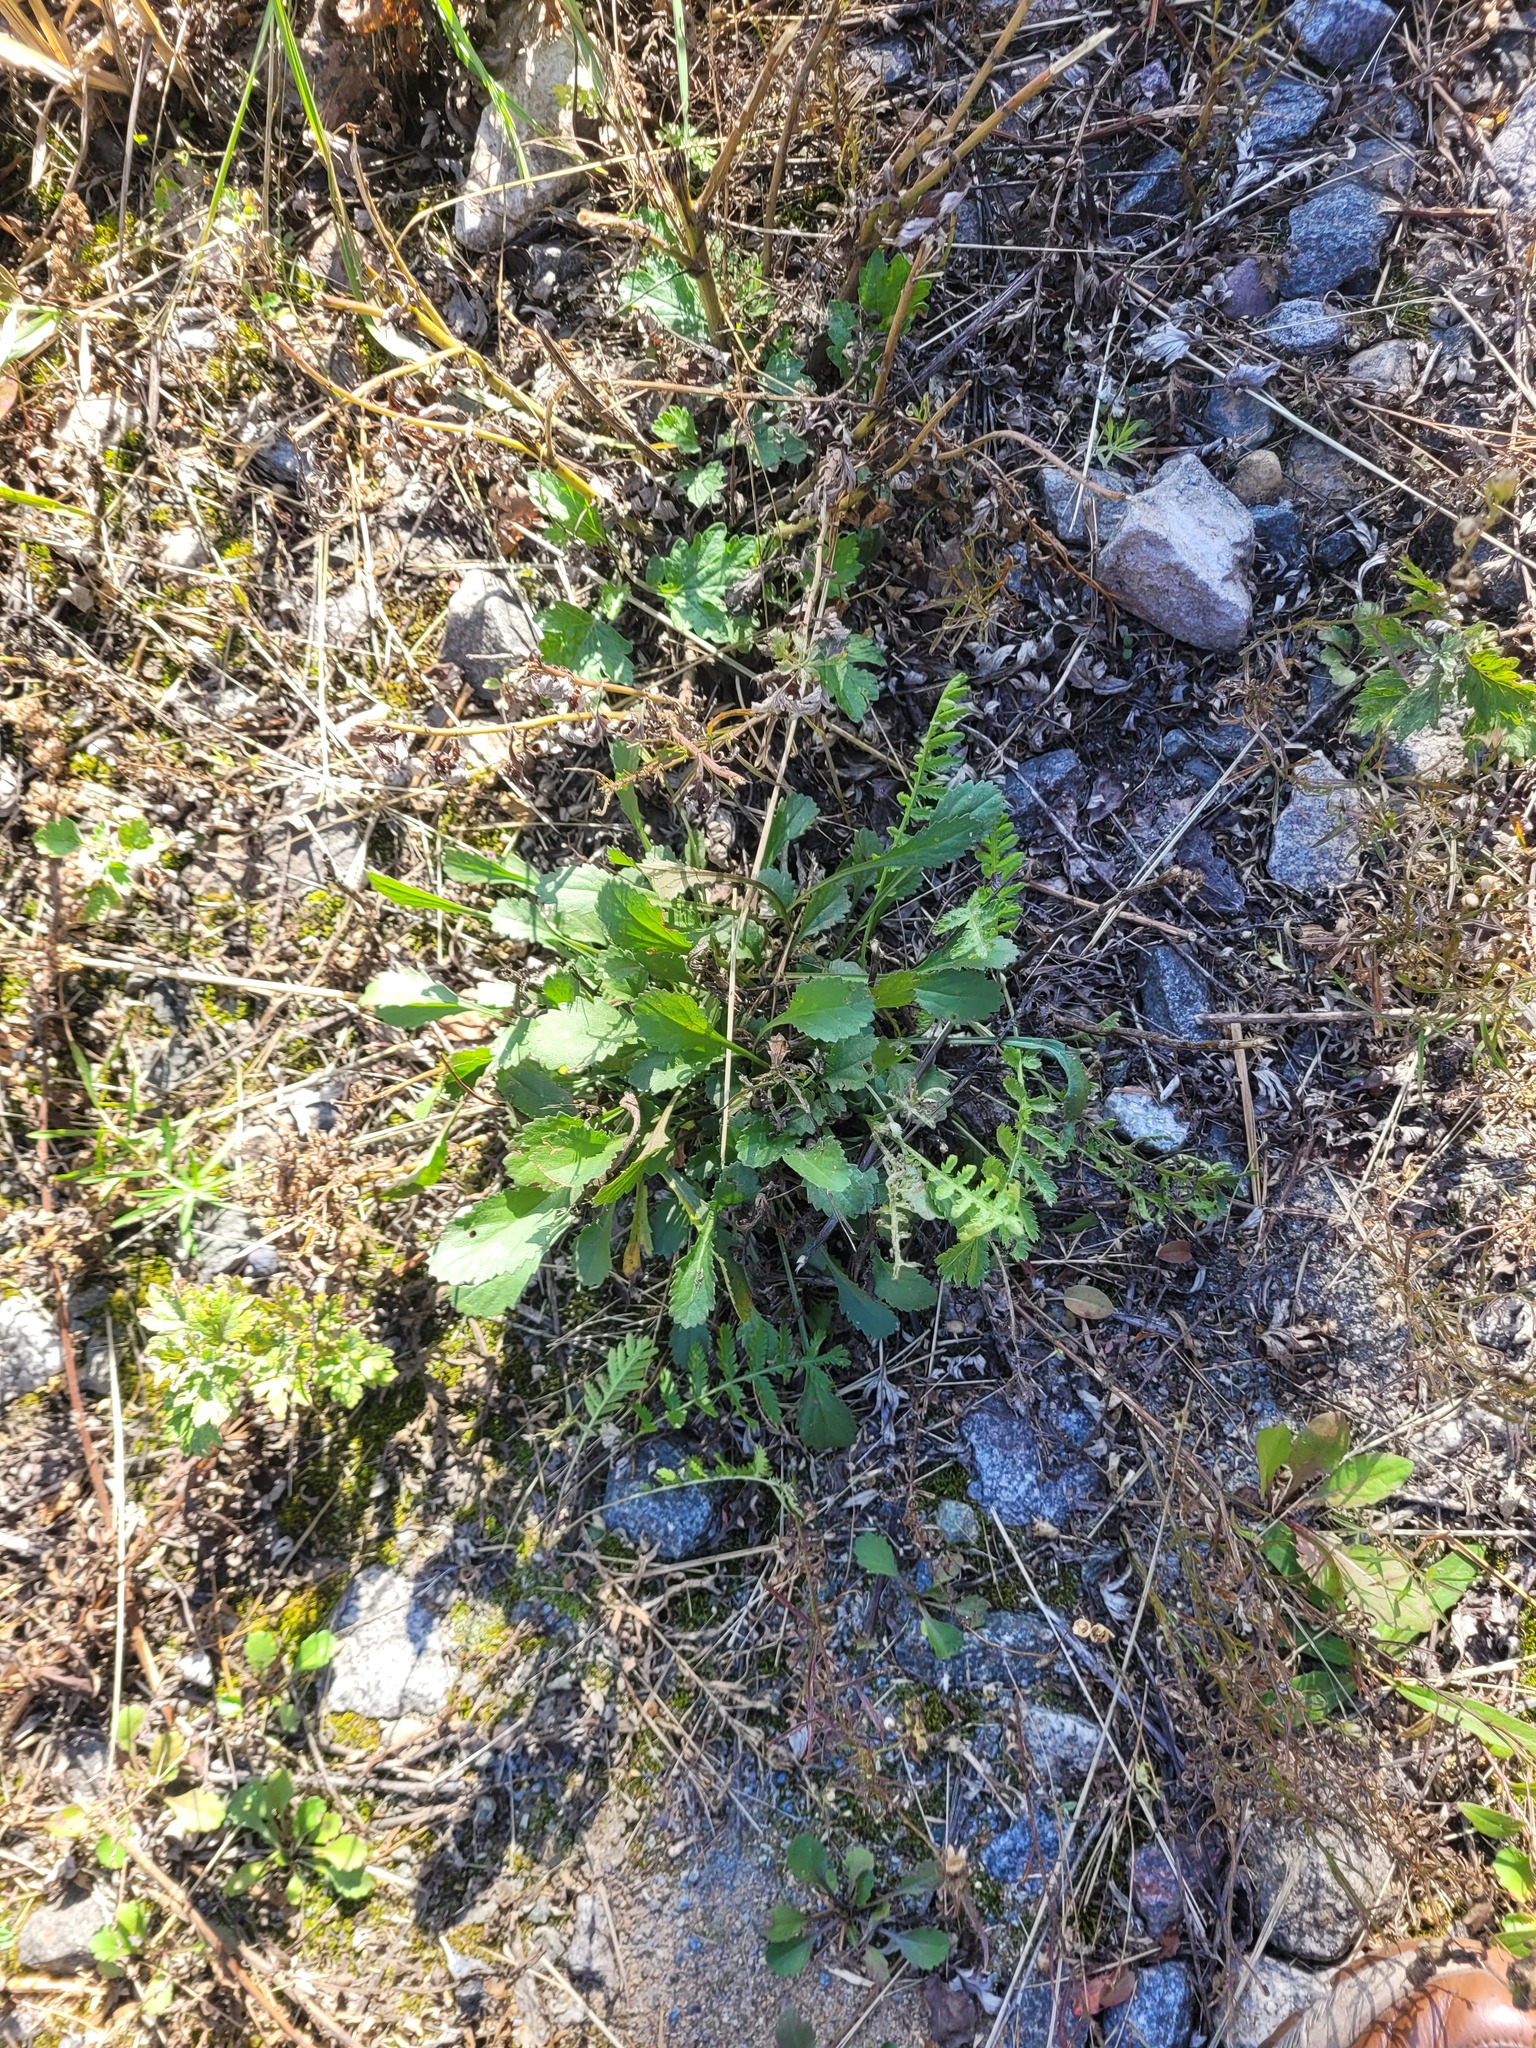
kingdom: Plantae
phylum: Tracheophyta
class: Magnoliopsida
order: Asterales
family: Asteraceae
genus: Leucanthemum
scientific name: Leucanthemum vulgare
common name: Oxeye daisy
